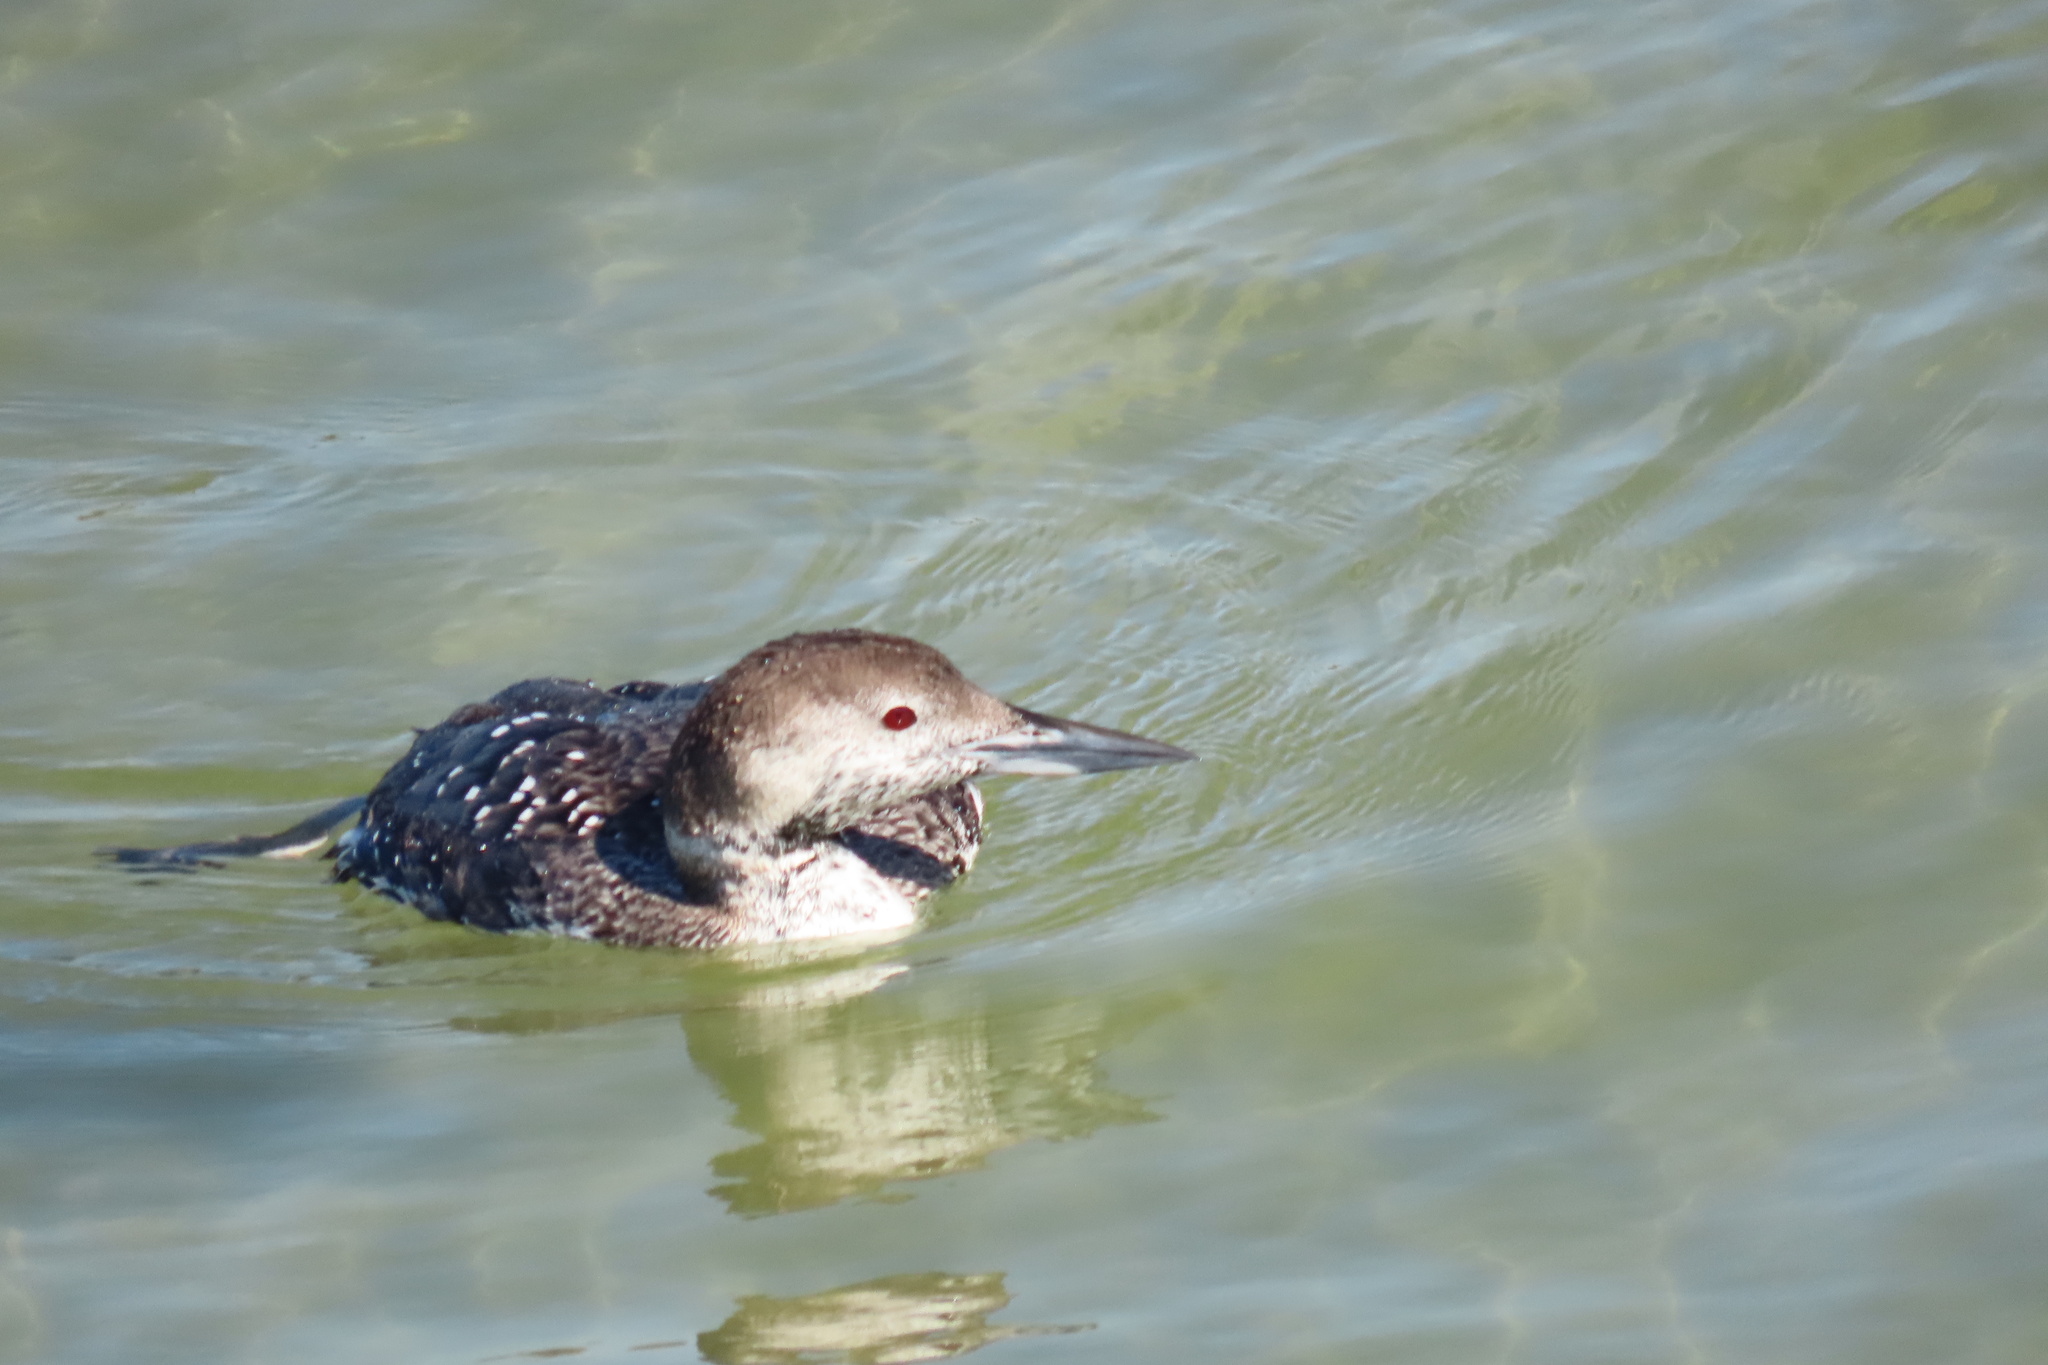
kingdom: Animalia
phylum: Chordata
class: Aves
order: Gaviiformes
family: Gaviidae
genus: Gavia
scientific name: Gavia immer
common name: Common loon
